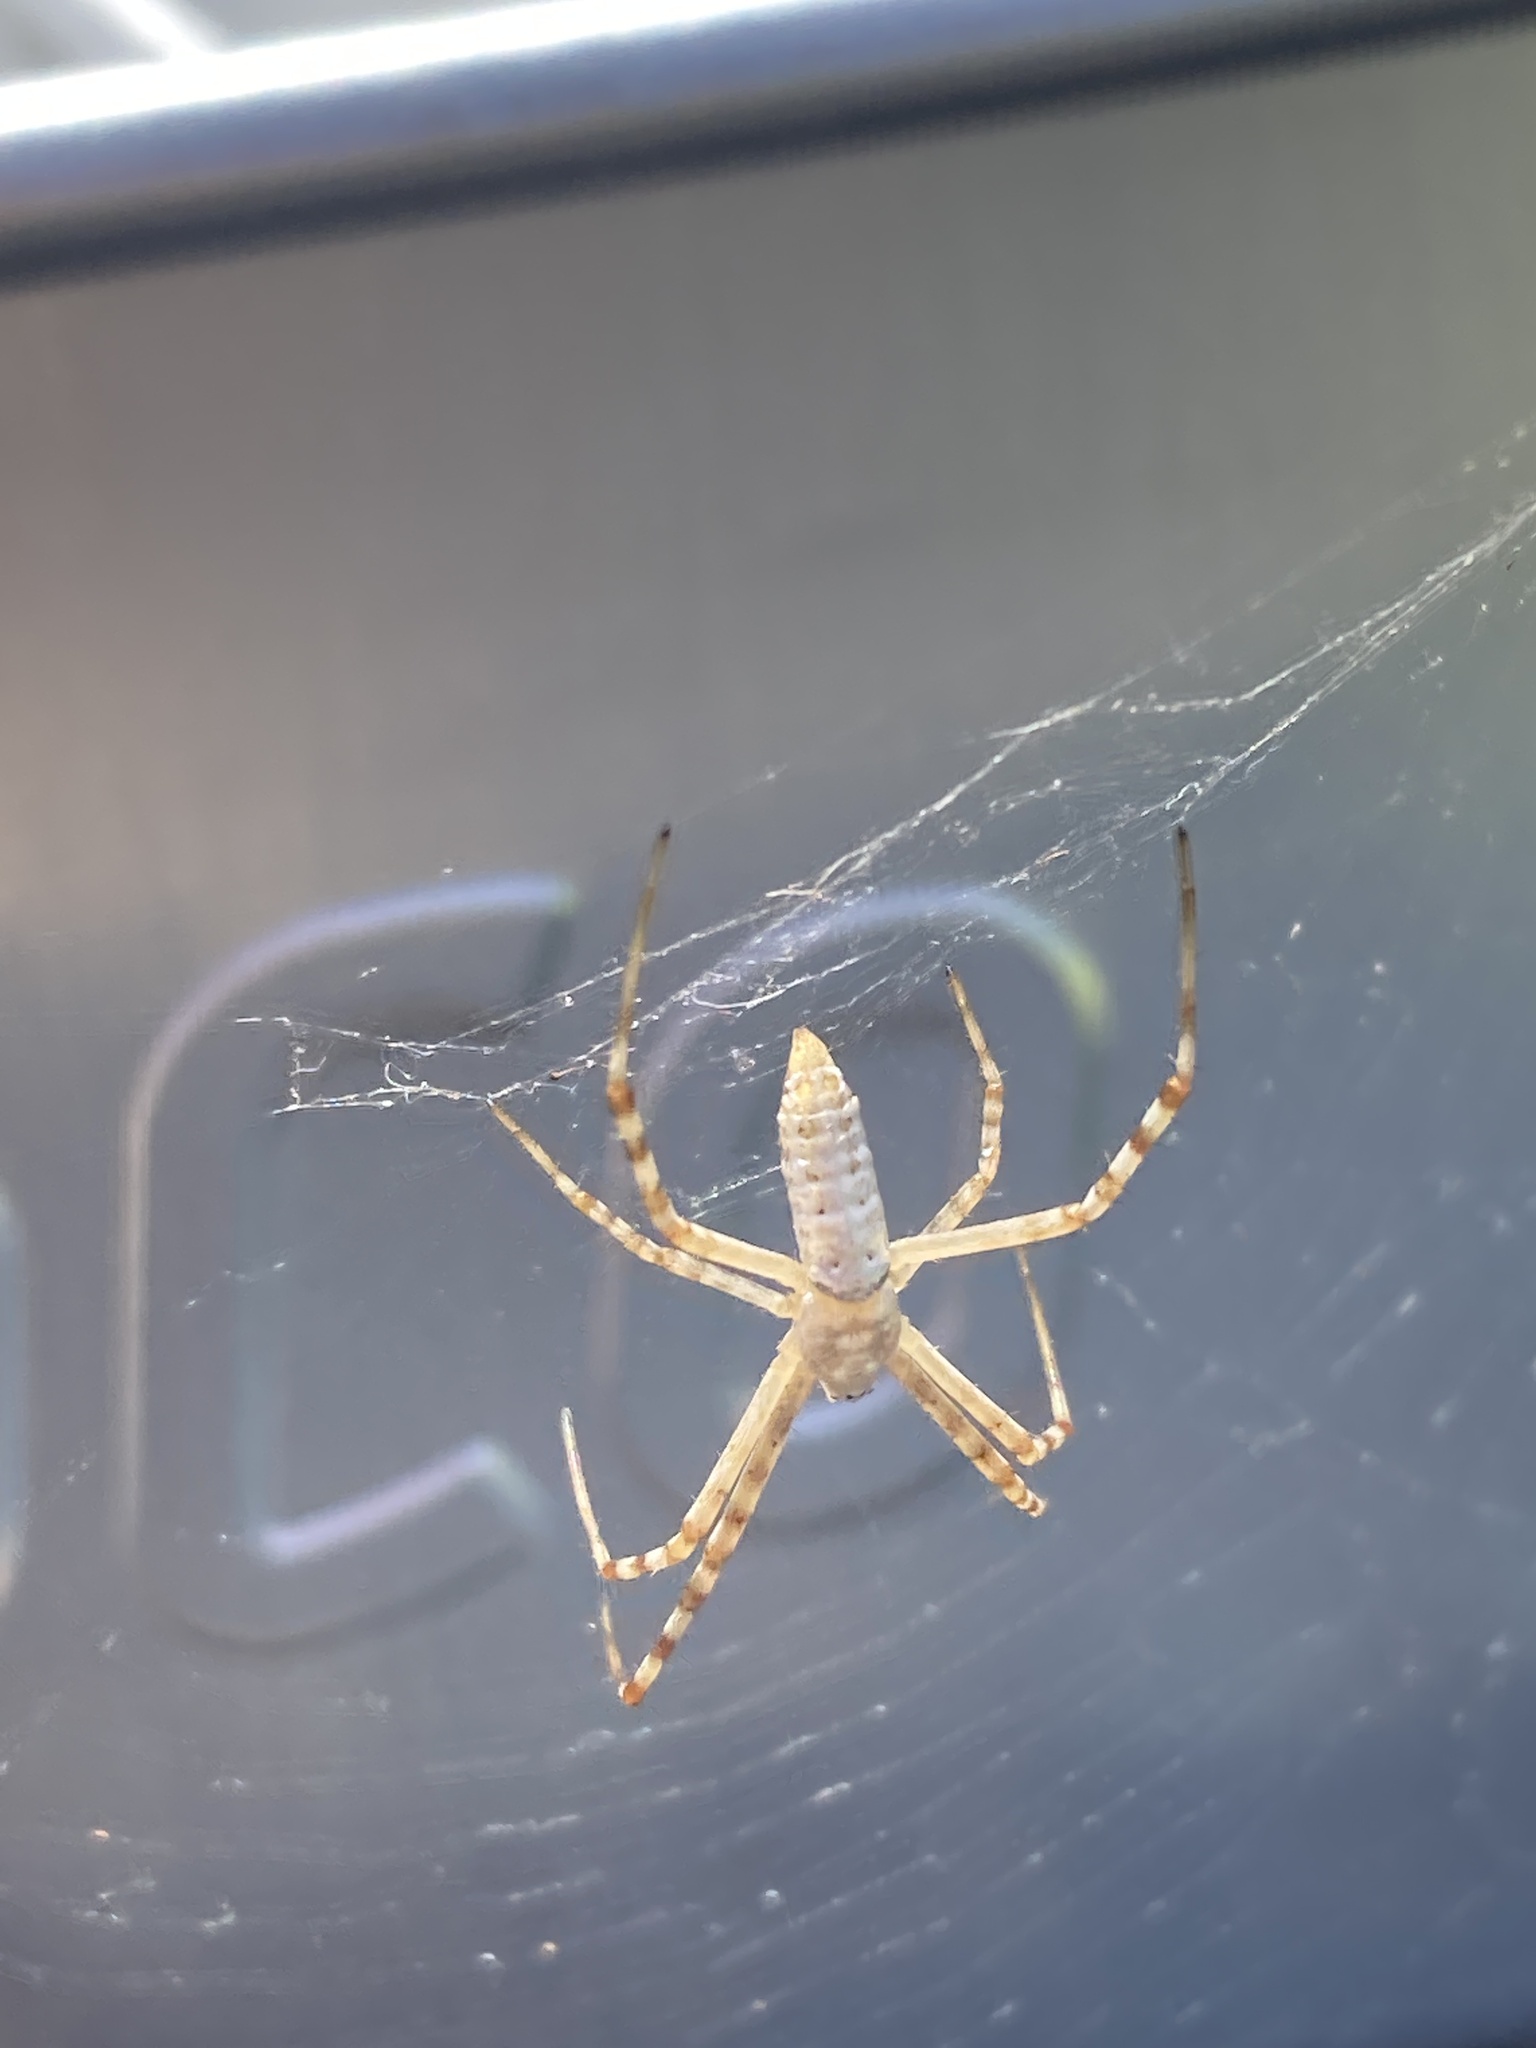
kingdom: Animalia
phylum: Arthropoda
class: Arachnida
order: Araneae
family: Araneidae
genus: Argiope
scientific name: Argiope trifasciata
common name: Banded garden spider
